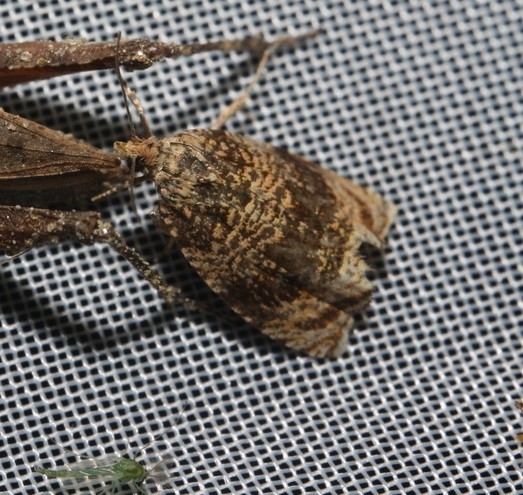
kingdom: Animalia
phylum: Arthropoda
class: Insecta
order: Lepidoptera
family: Tortricidae
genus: Syricoris
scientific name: Syricoris lacunana
